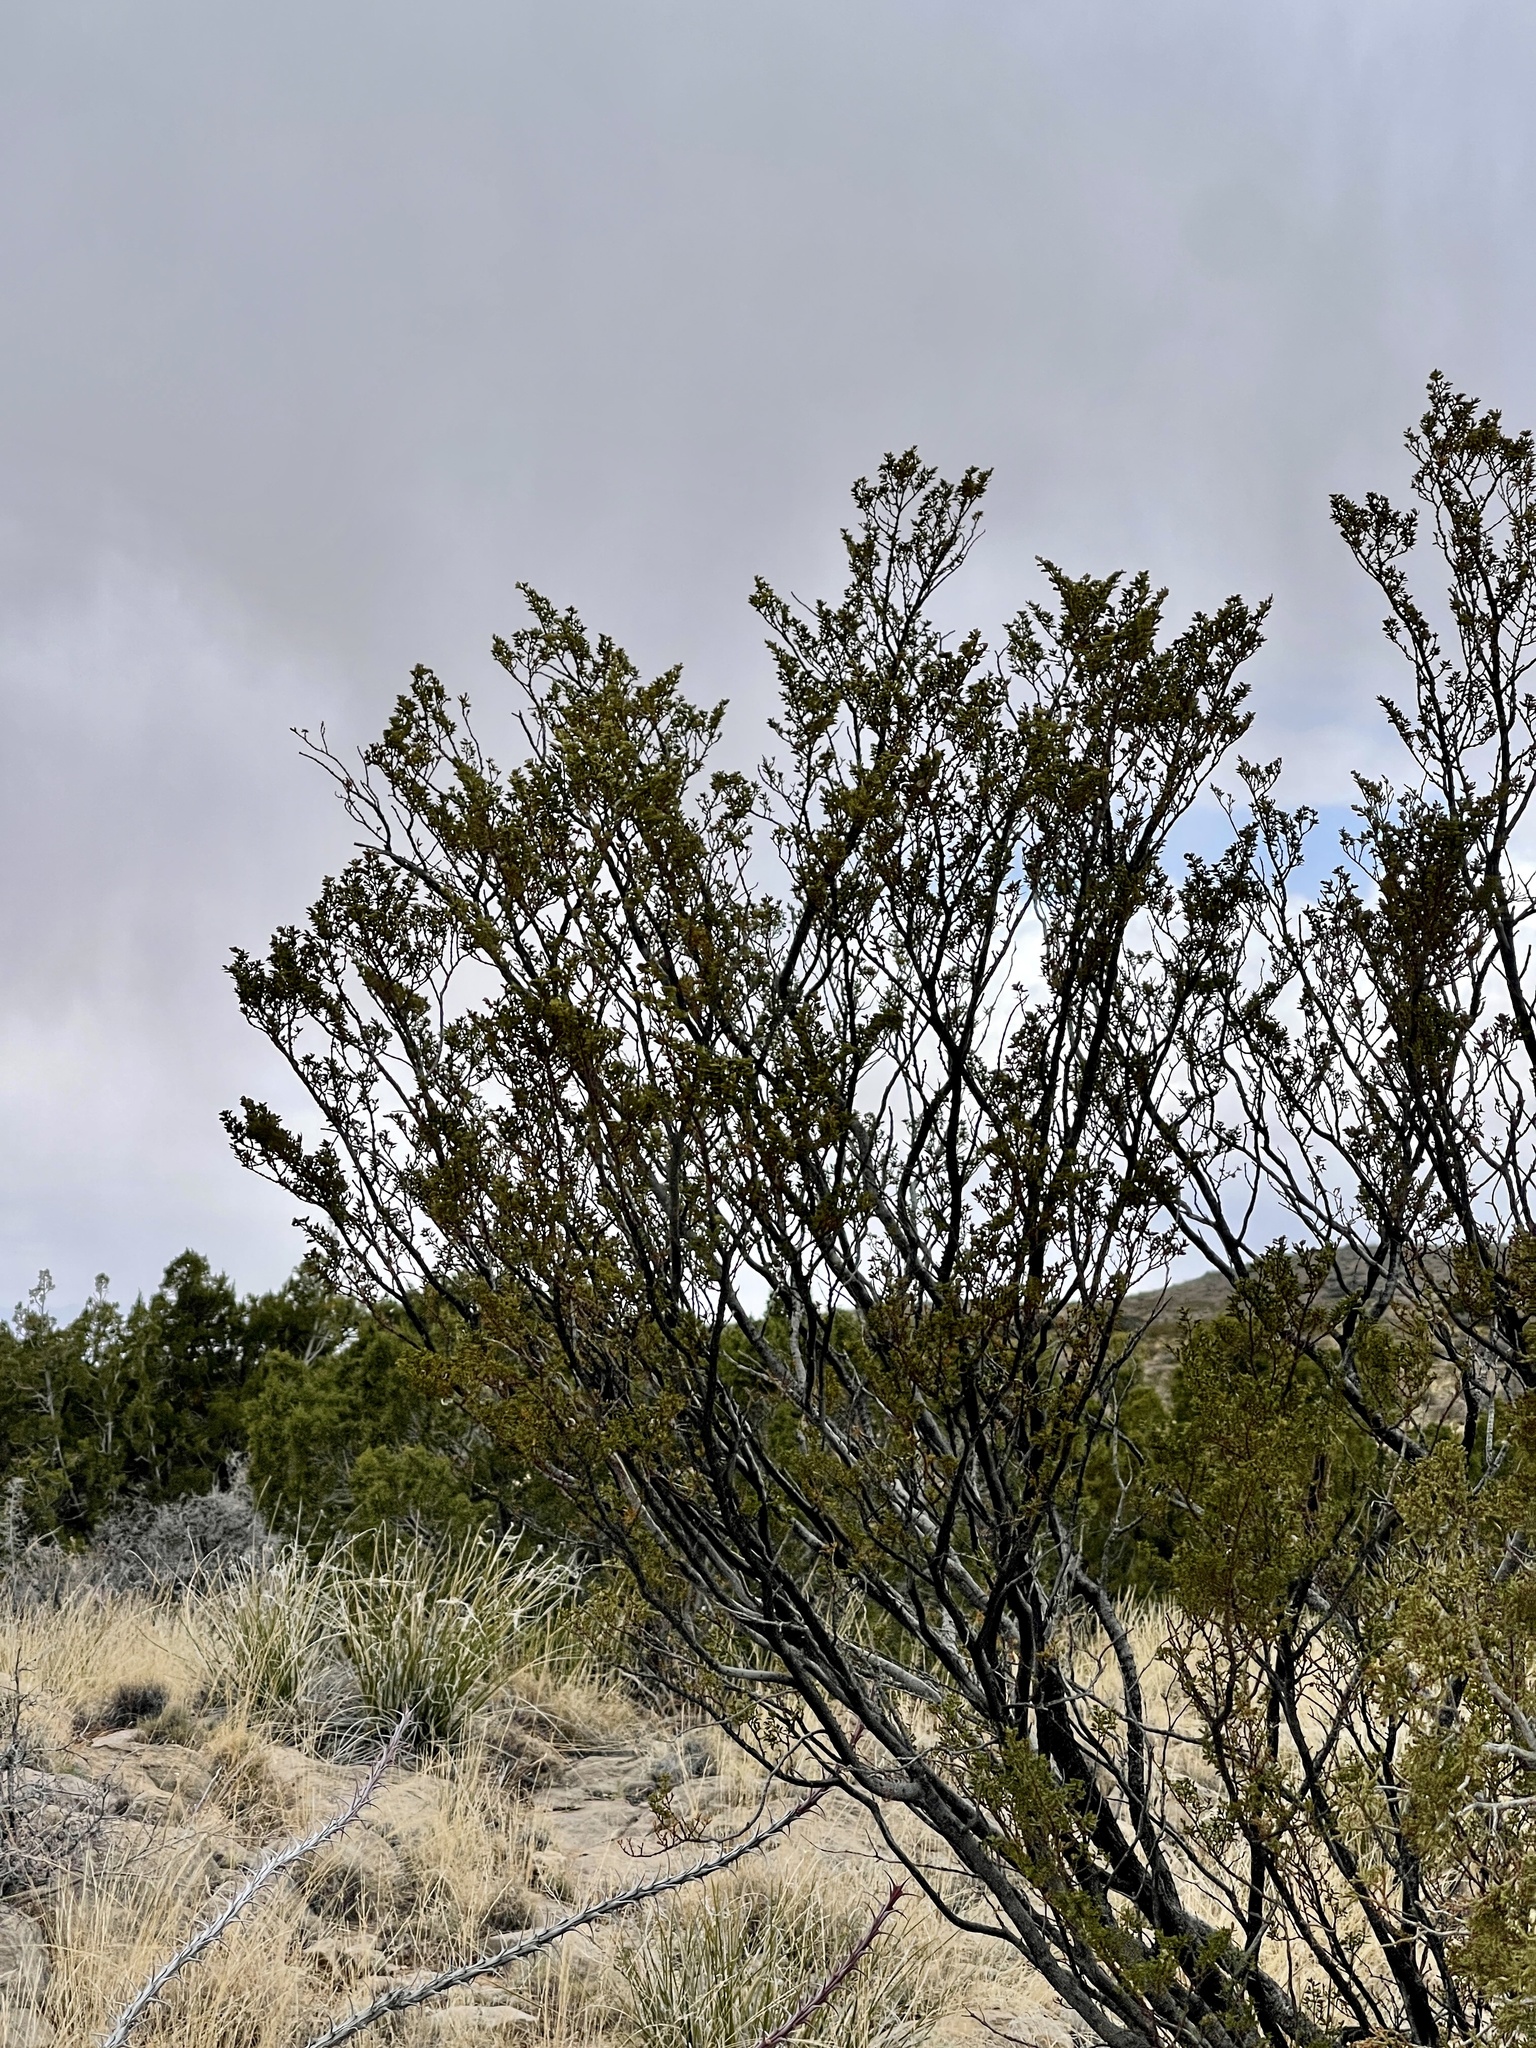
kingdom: Plantae
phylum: Tracheophyta
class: Magnoliopsida
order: Zygophyllales
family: Zygophyllaceae
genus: Larrea
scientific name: Larrea tridentata
